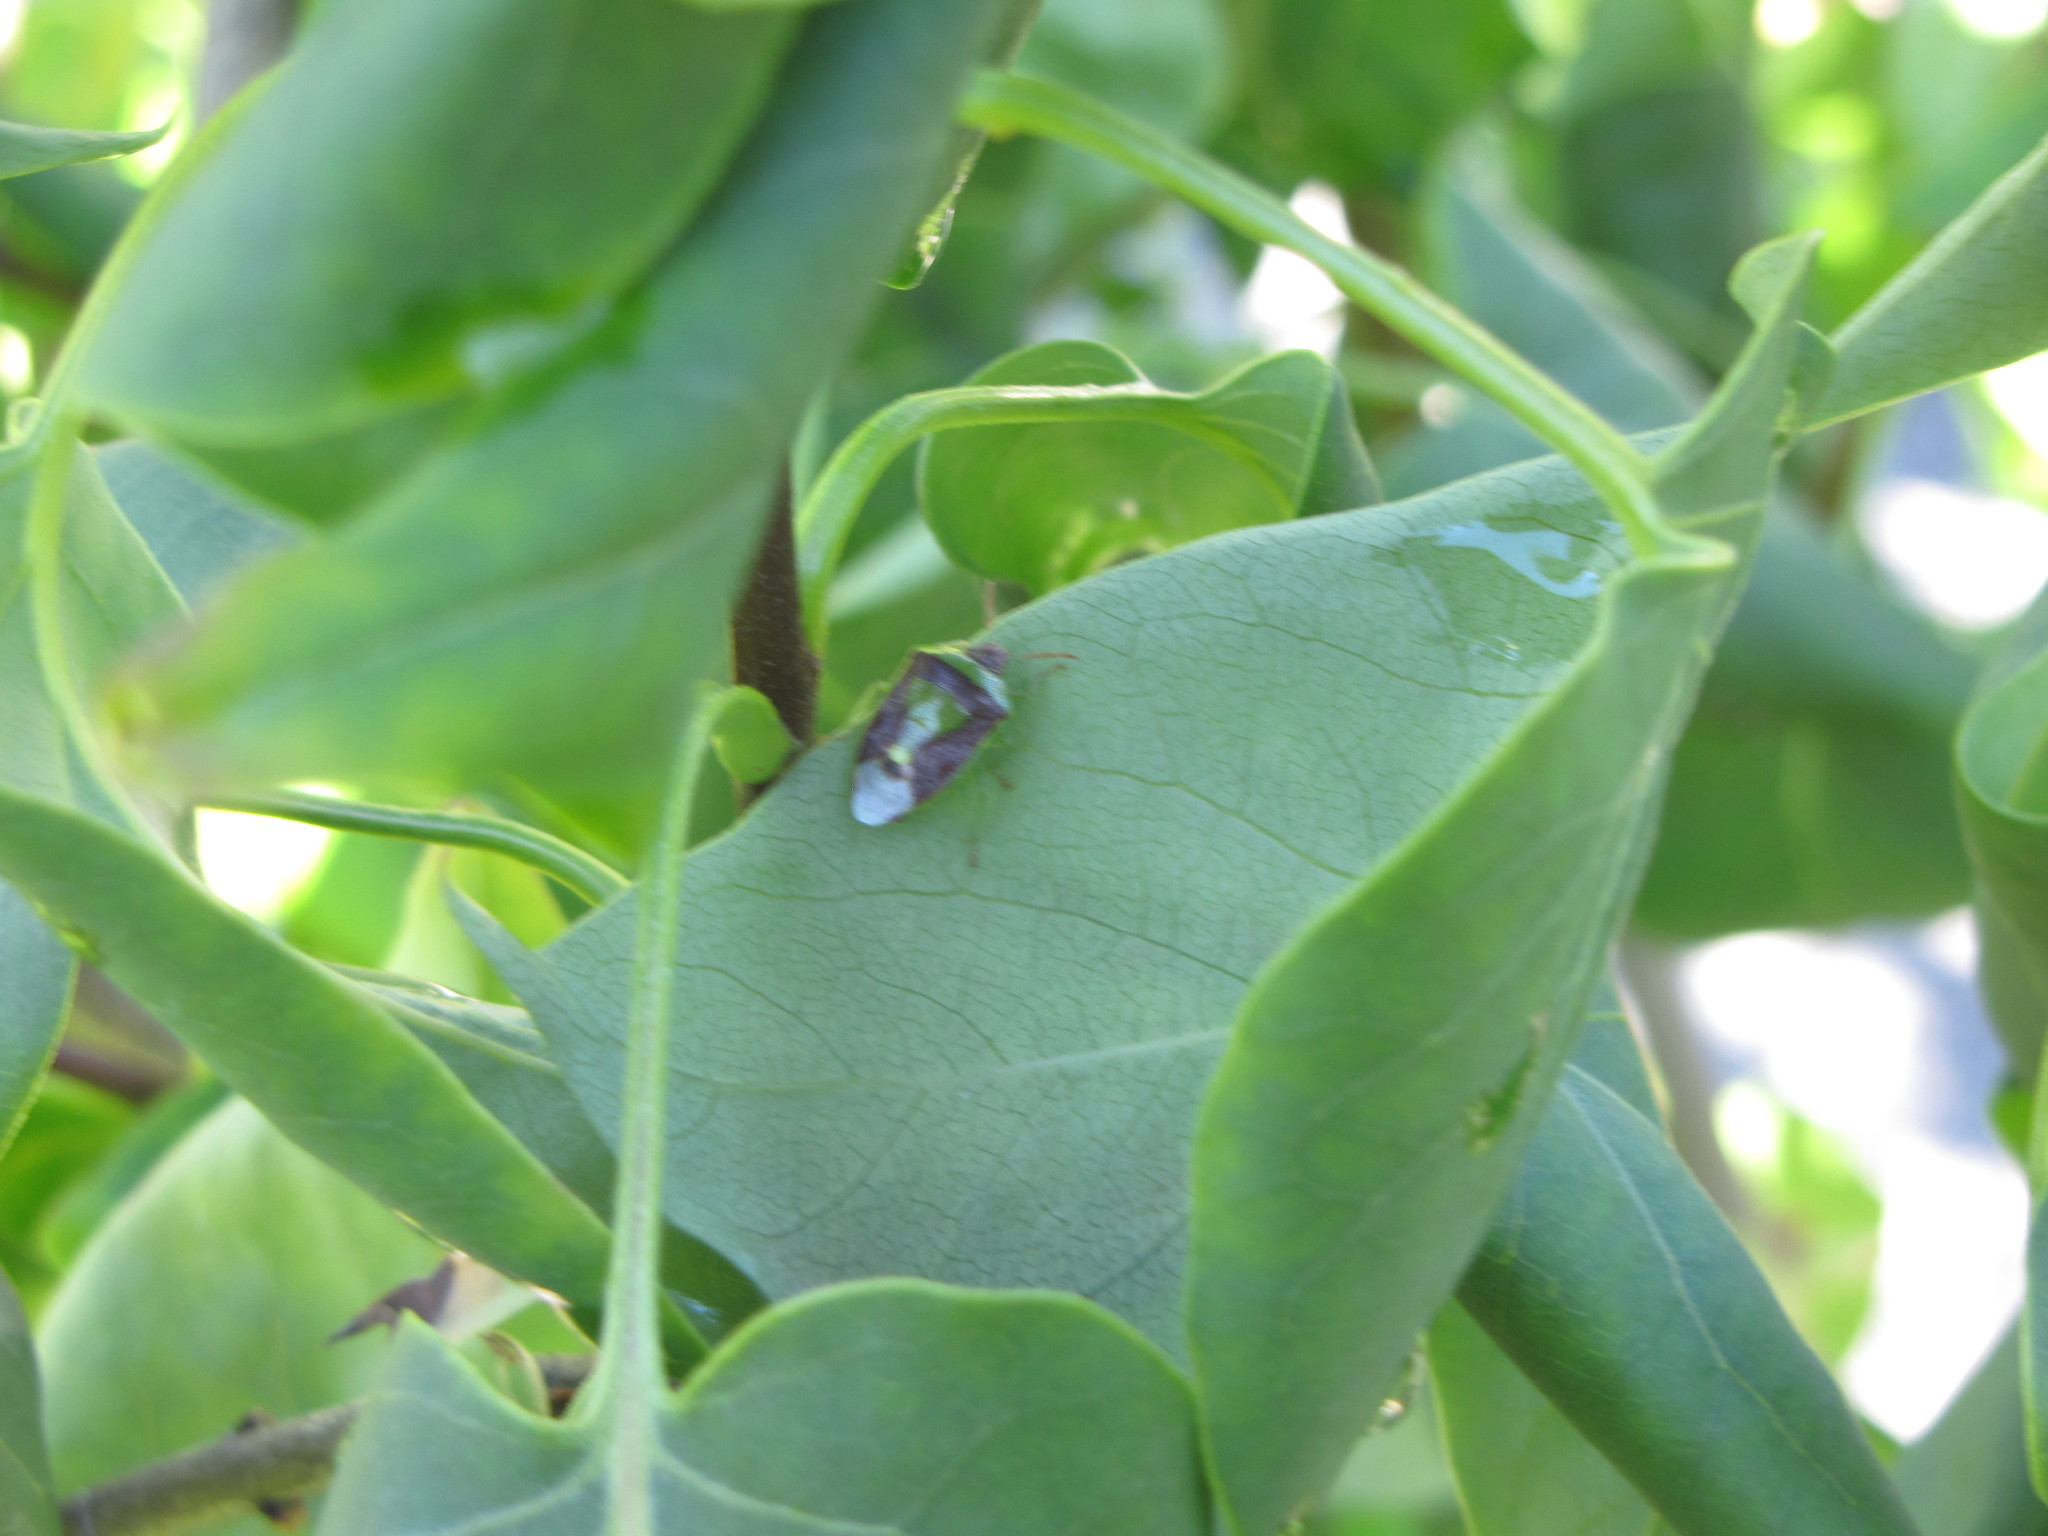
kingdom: Animalia
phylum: Arthropoda
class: Insecta
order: Hemiptera
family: Pentatomidae
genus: Banasa
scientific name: Banasa dimidiata
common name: Green burgundy stink bug
